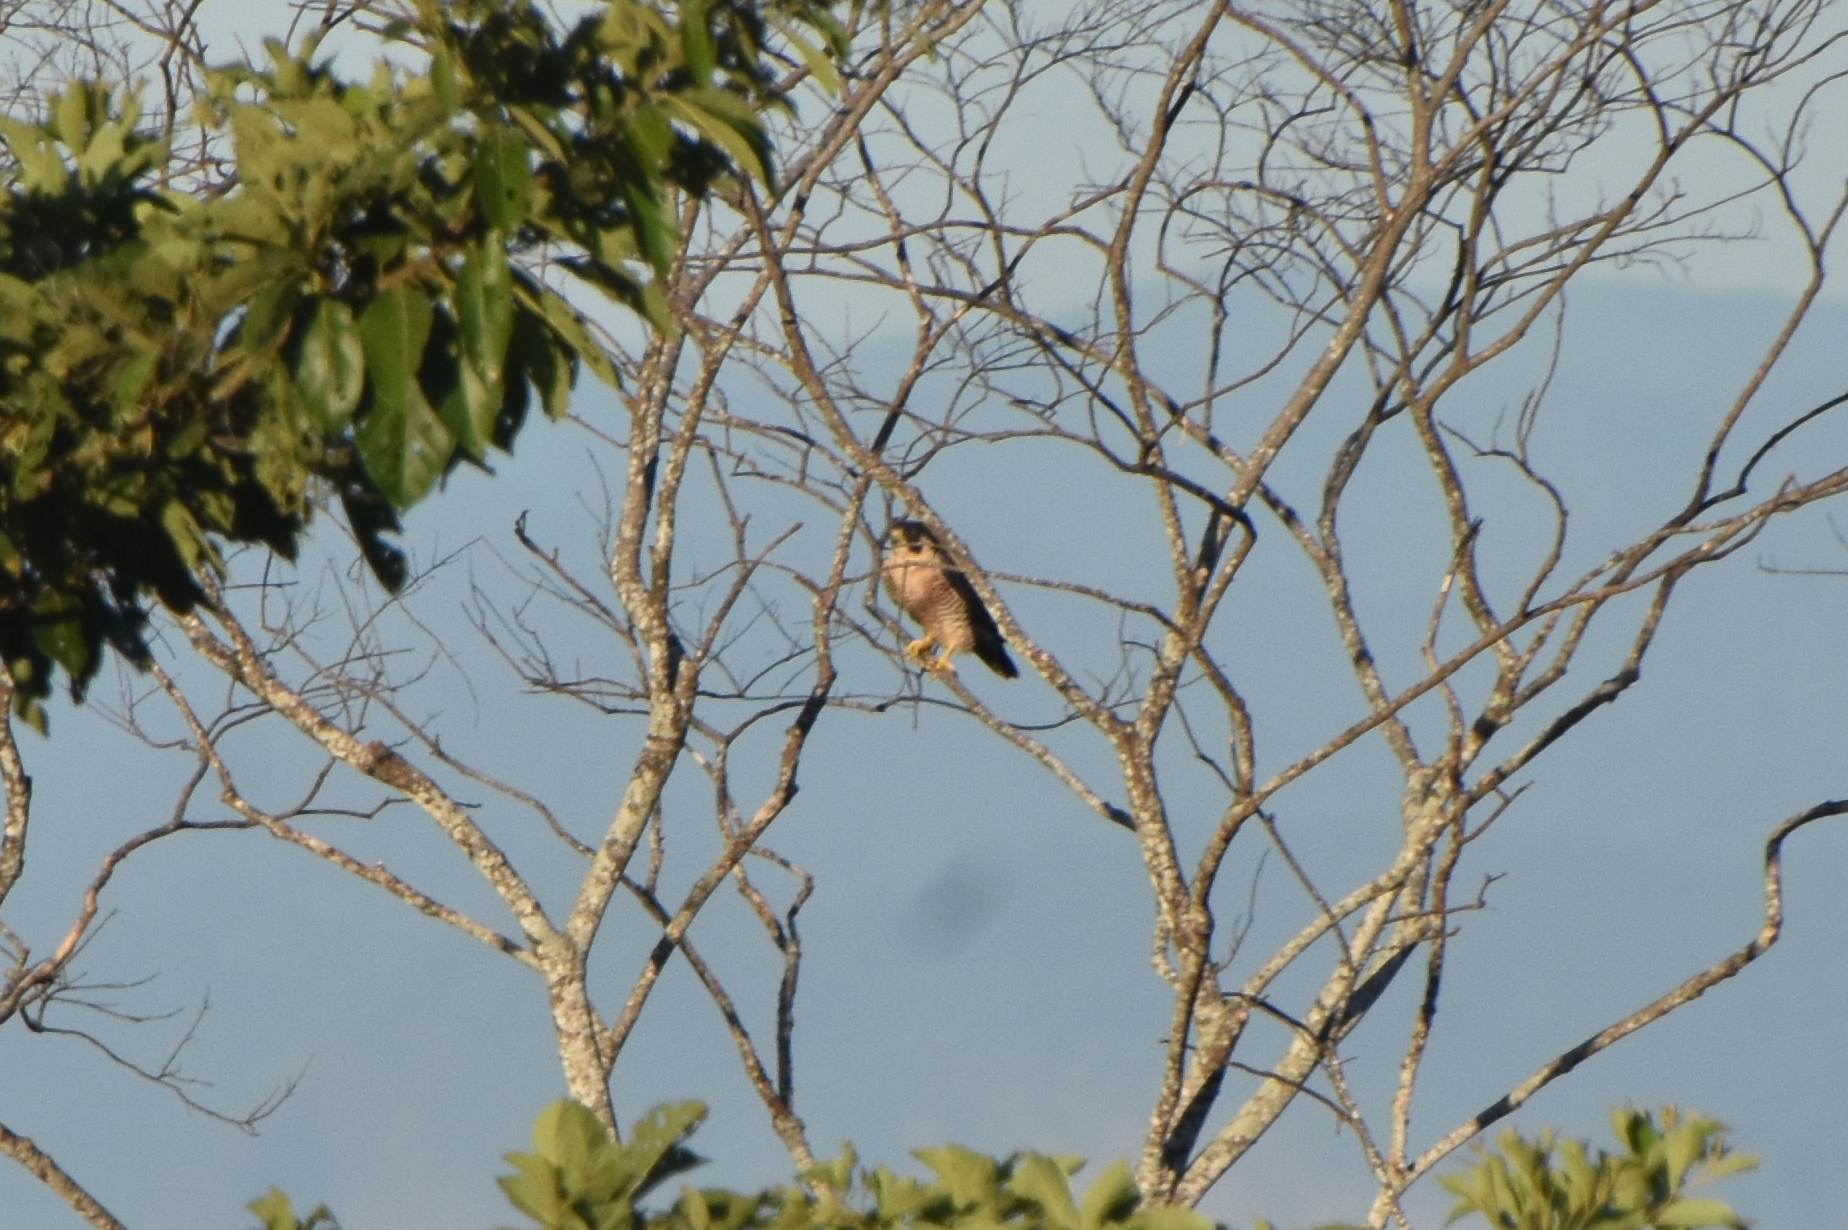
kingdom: Animalia
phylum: Chordata
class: Aves
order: Falconiformes
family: Falconidae
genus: Falco
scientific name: Falco peregrinus
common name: Peregrine falcon
